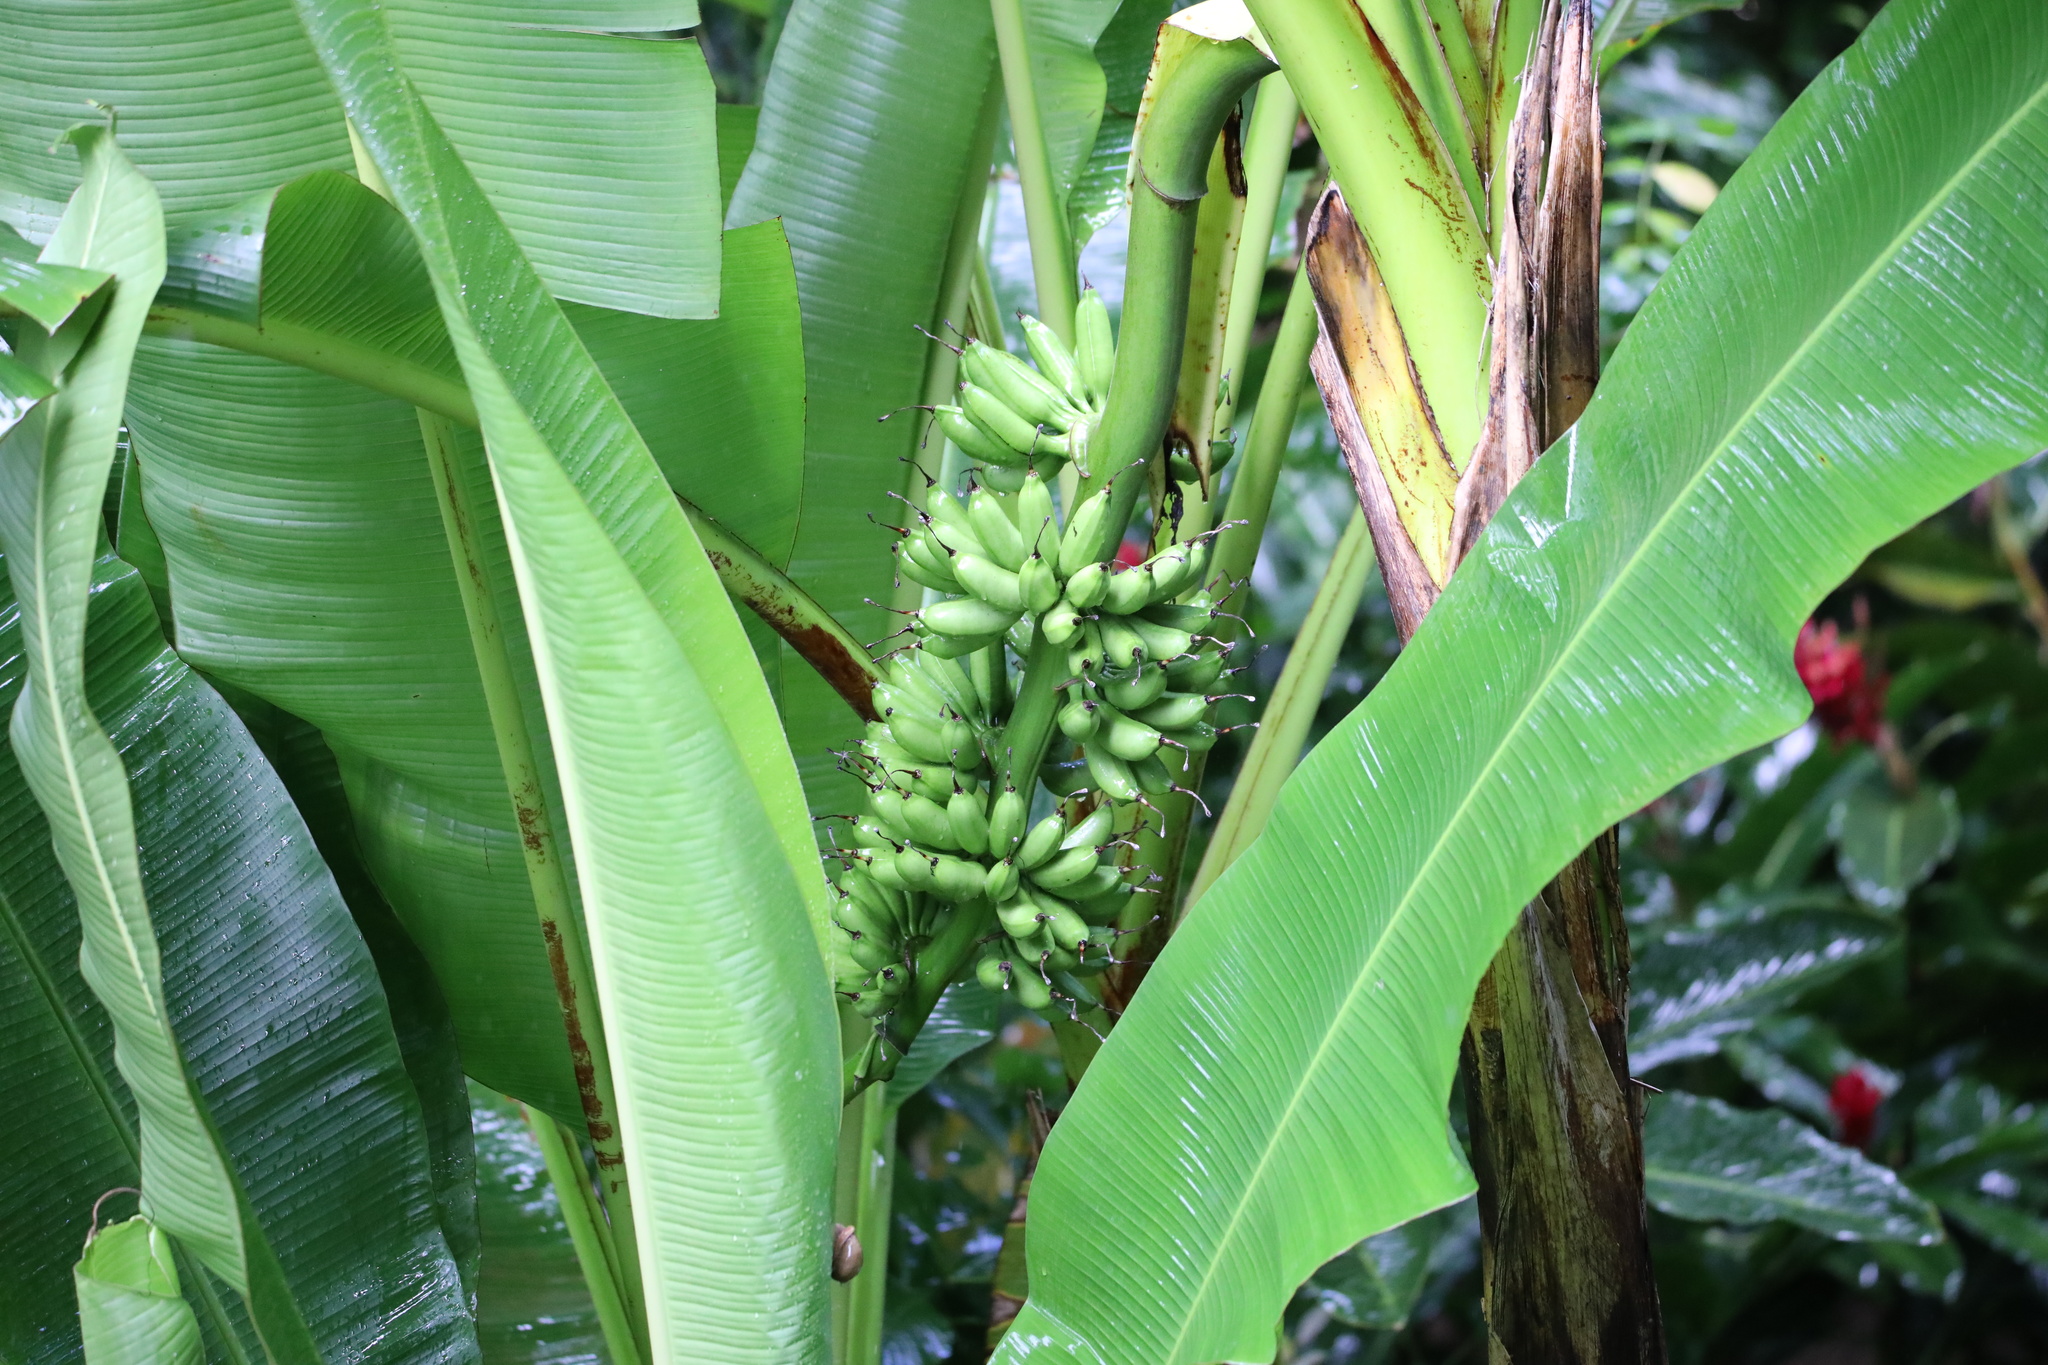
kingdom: Plantae
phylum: Tracheophyta
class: Liliopsida
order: Zingiberales
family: Musaceae
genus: Musa
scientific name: Musa acuminata
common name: Edible banana
